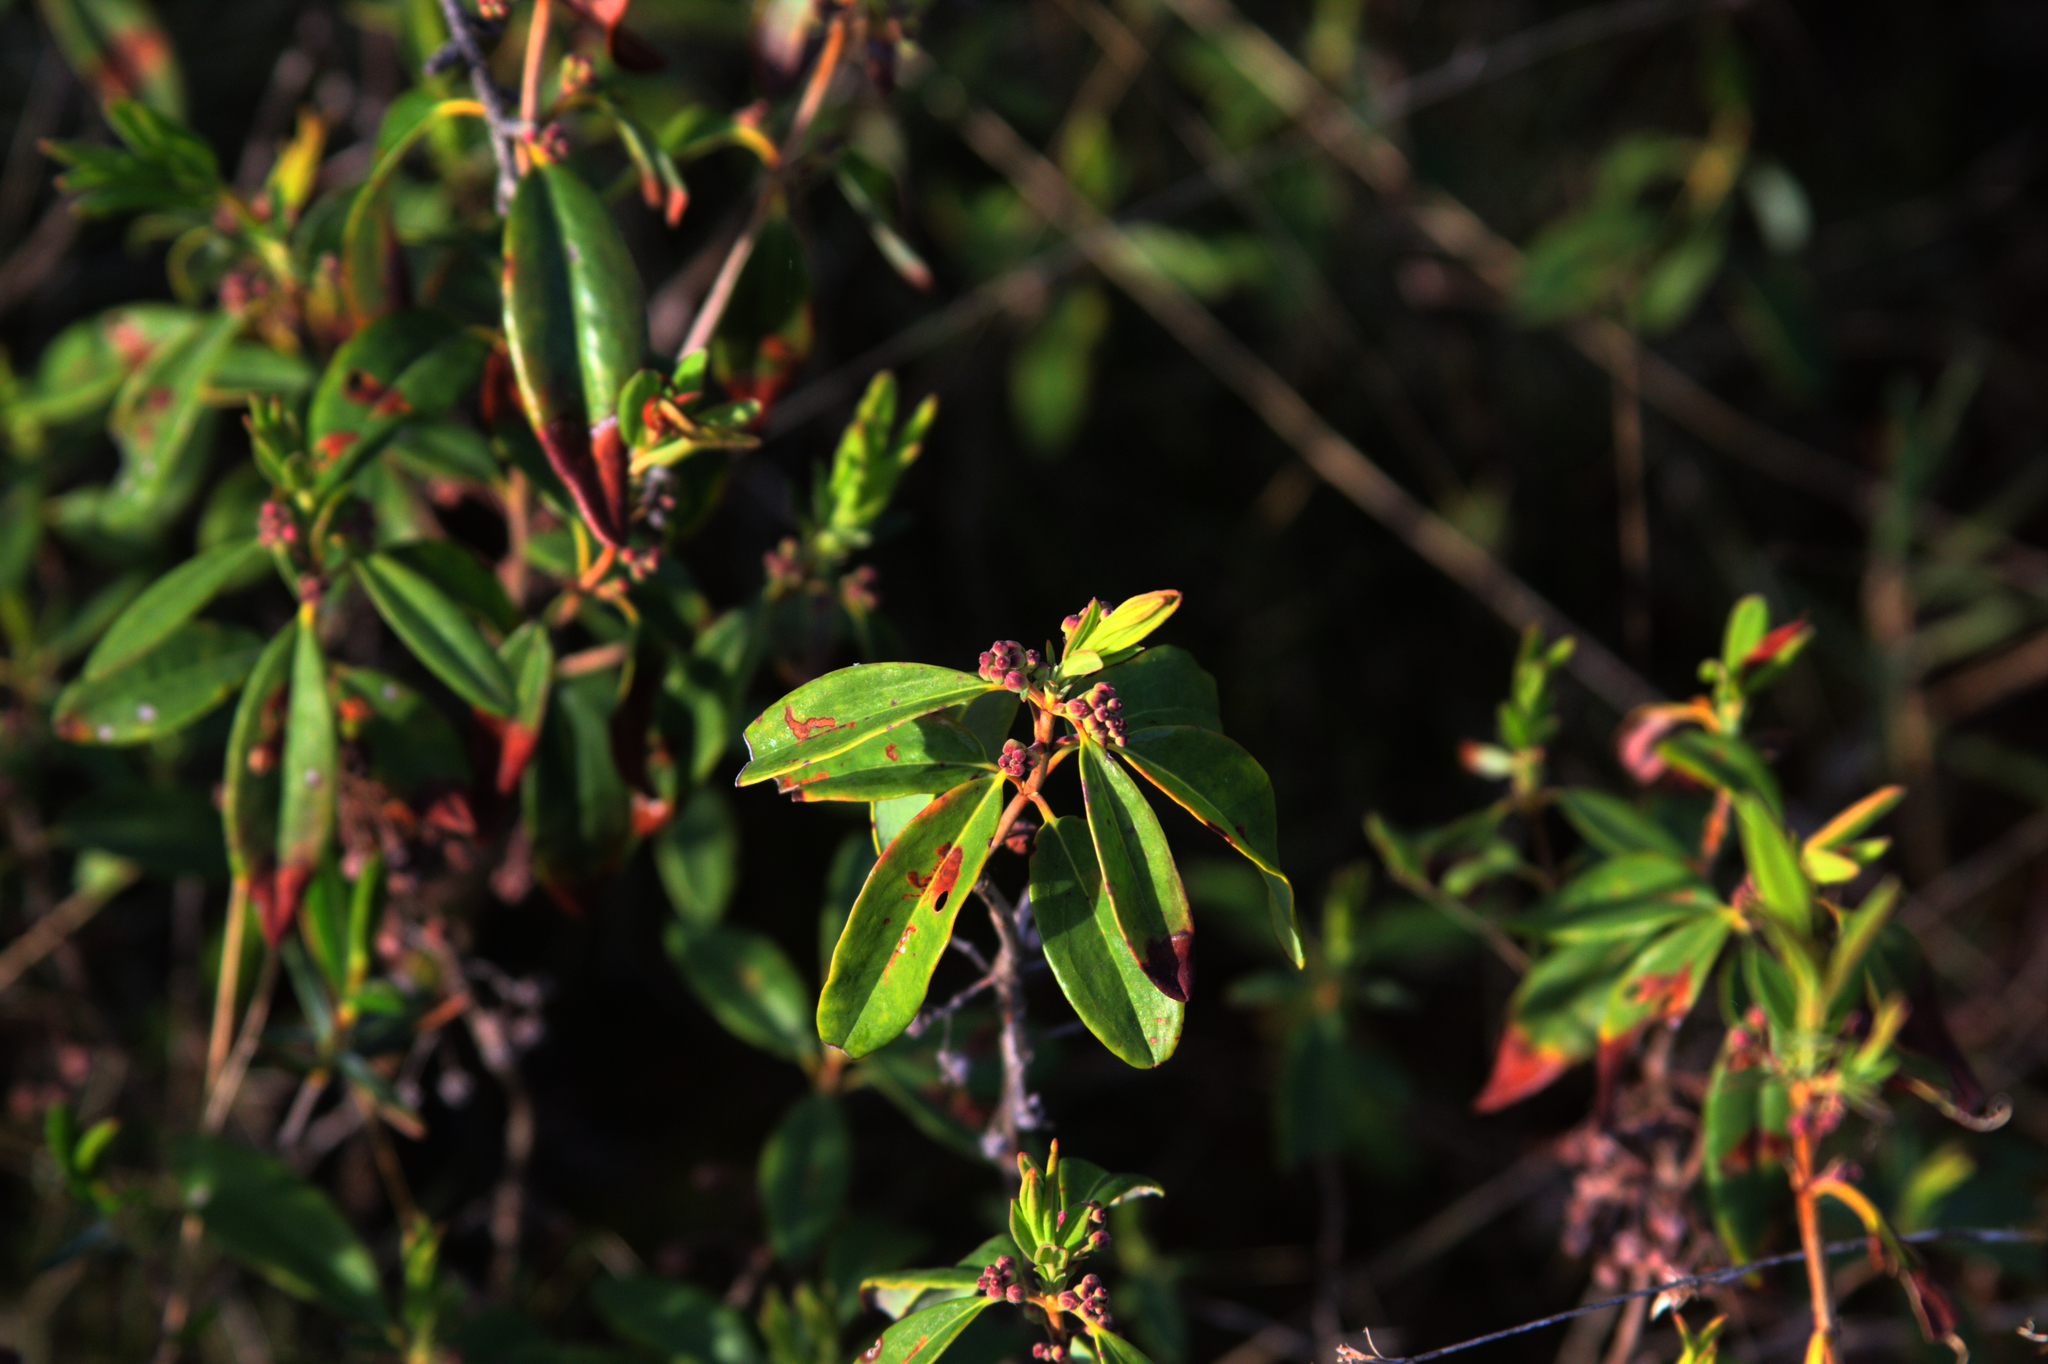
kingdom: Plantae
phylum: Tracheophyta
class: Magnoliopsida
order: Ericales
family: Ericaceae
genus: Kalmia
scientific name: Kalmia angustifolia
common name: Sheep-laurel
